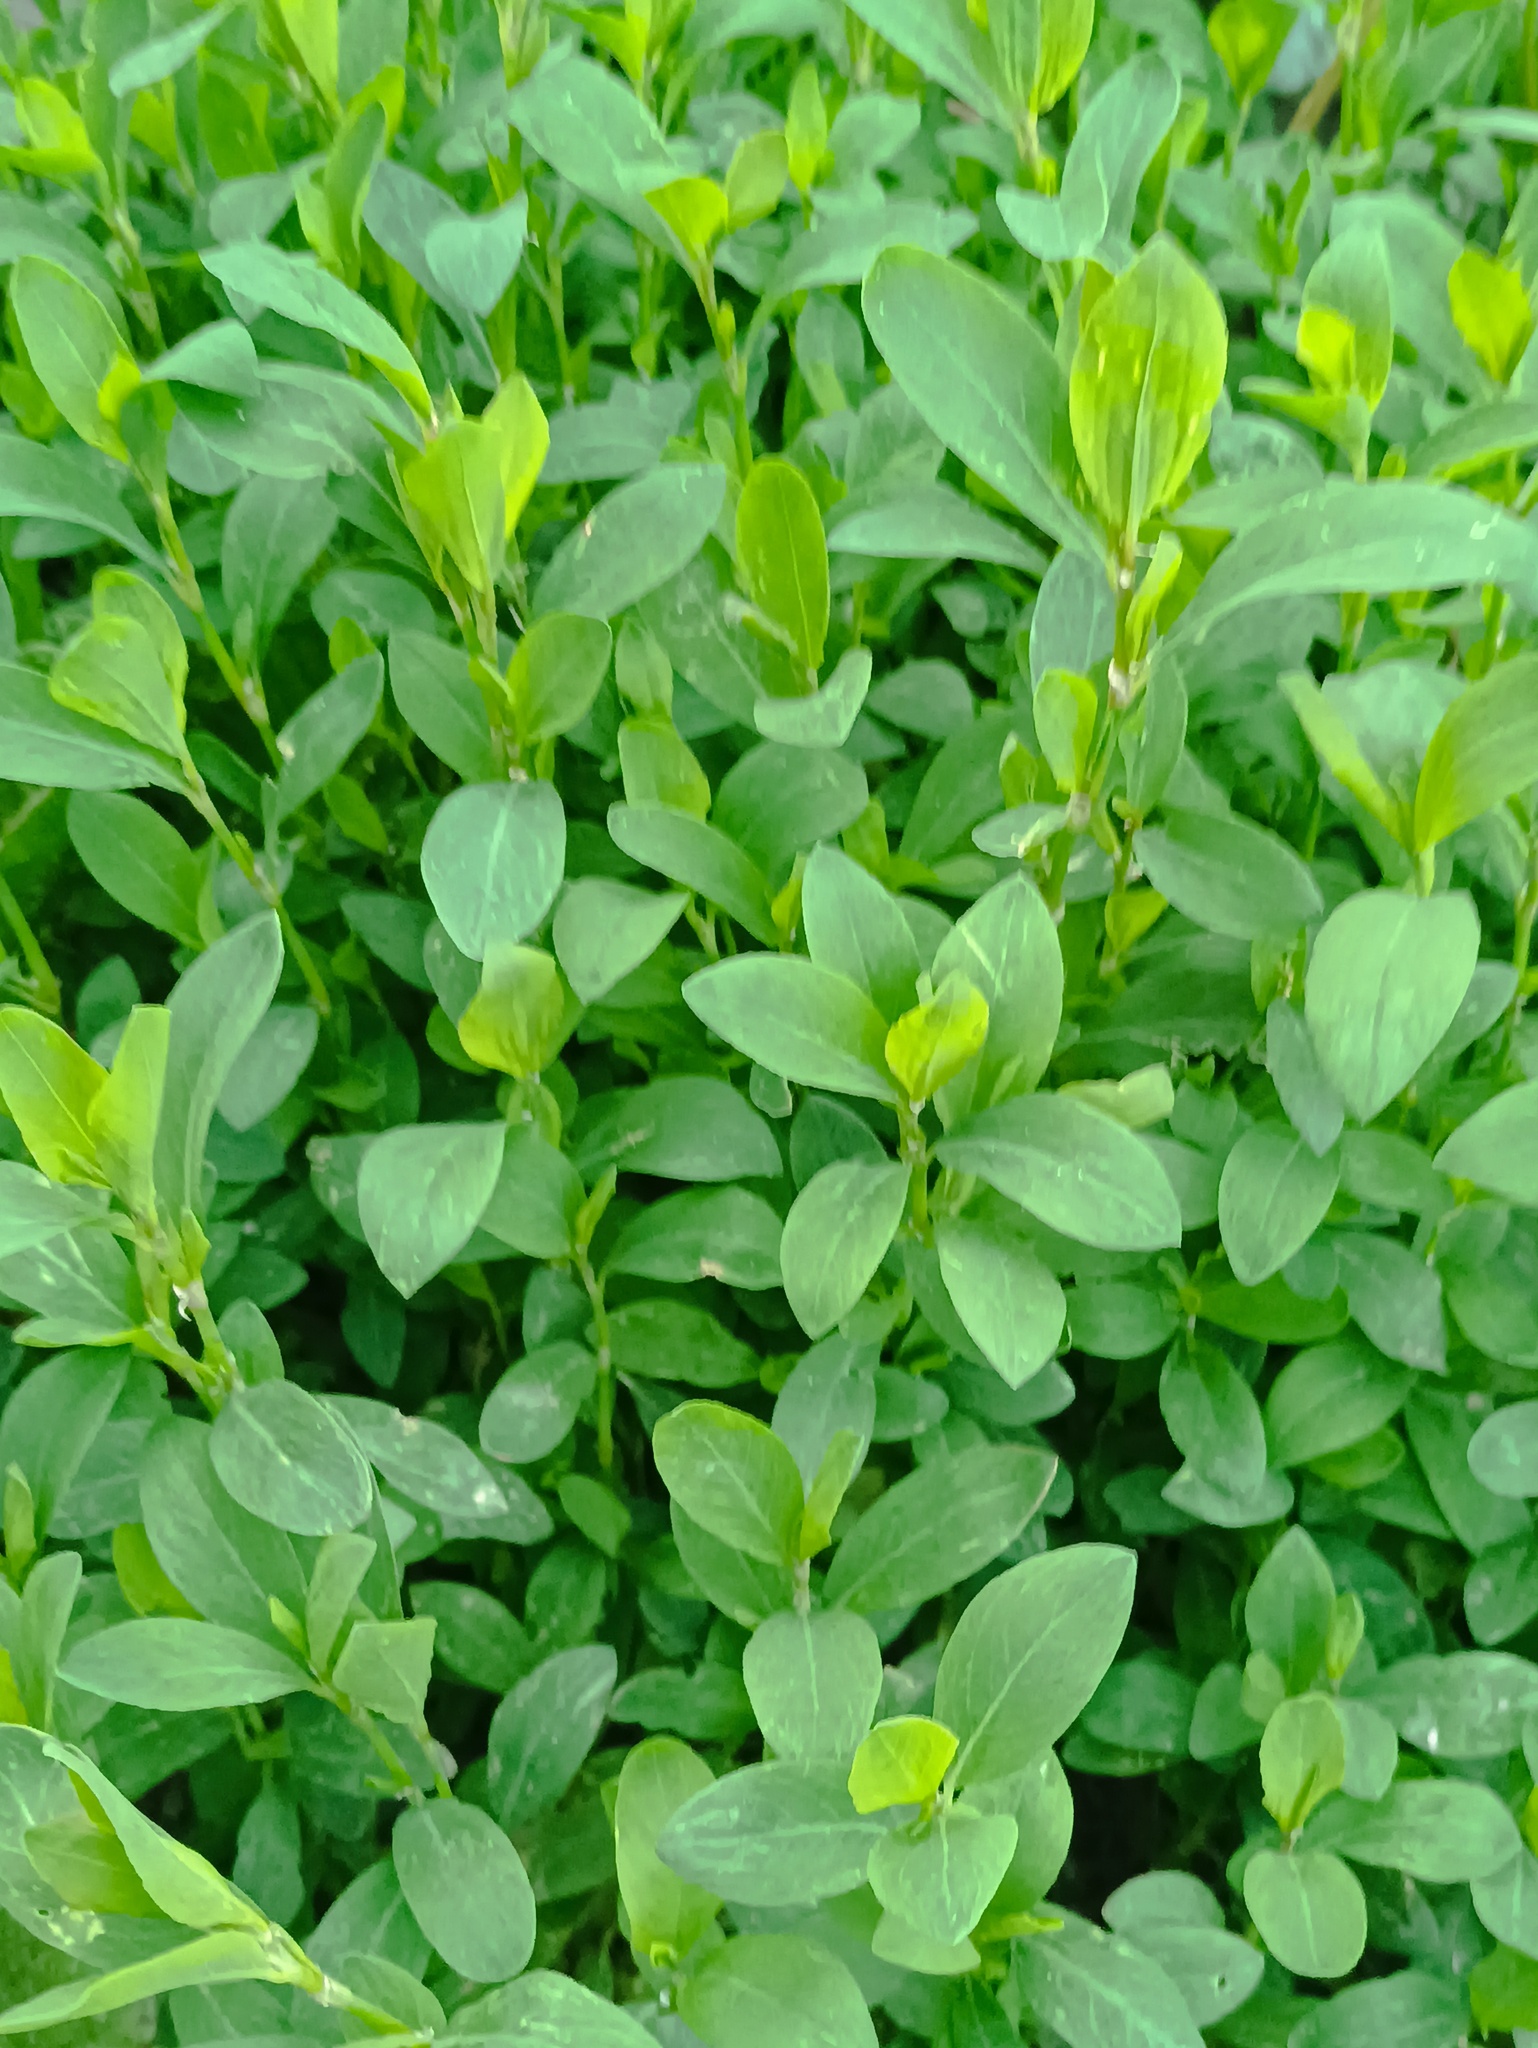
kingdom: Plantae
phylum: Tracheophyta
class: Magnoliopsida
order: Caryophyllales
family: Polygonaceae
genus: Polygonum
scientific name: Polygonum
